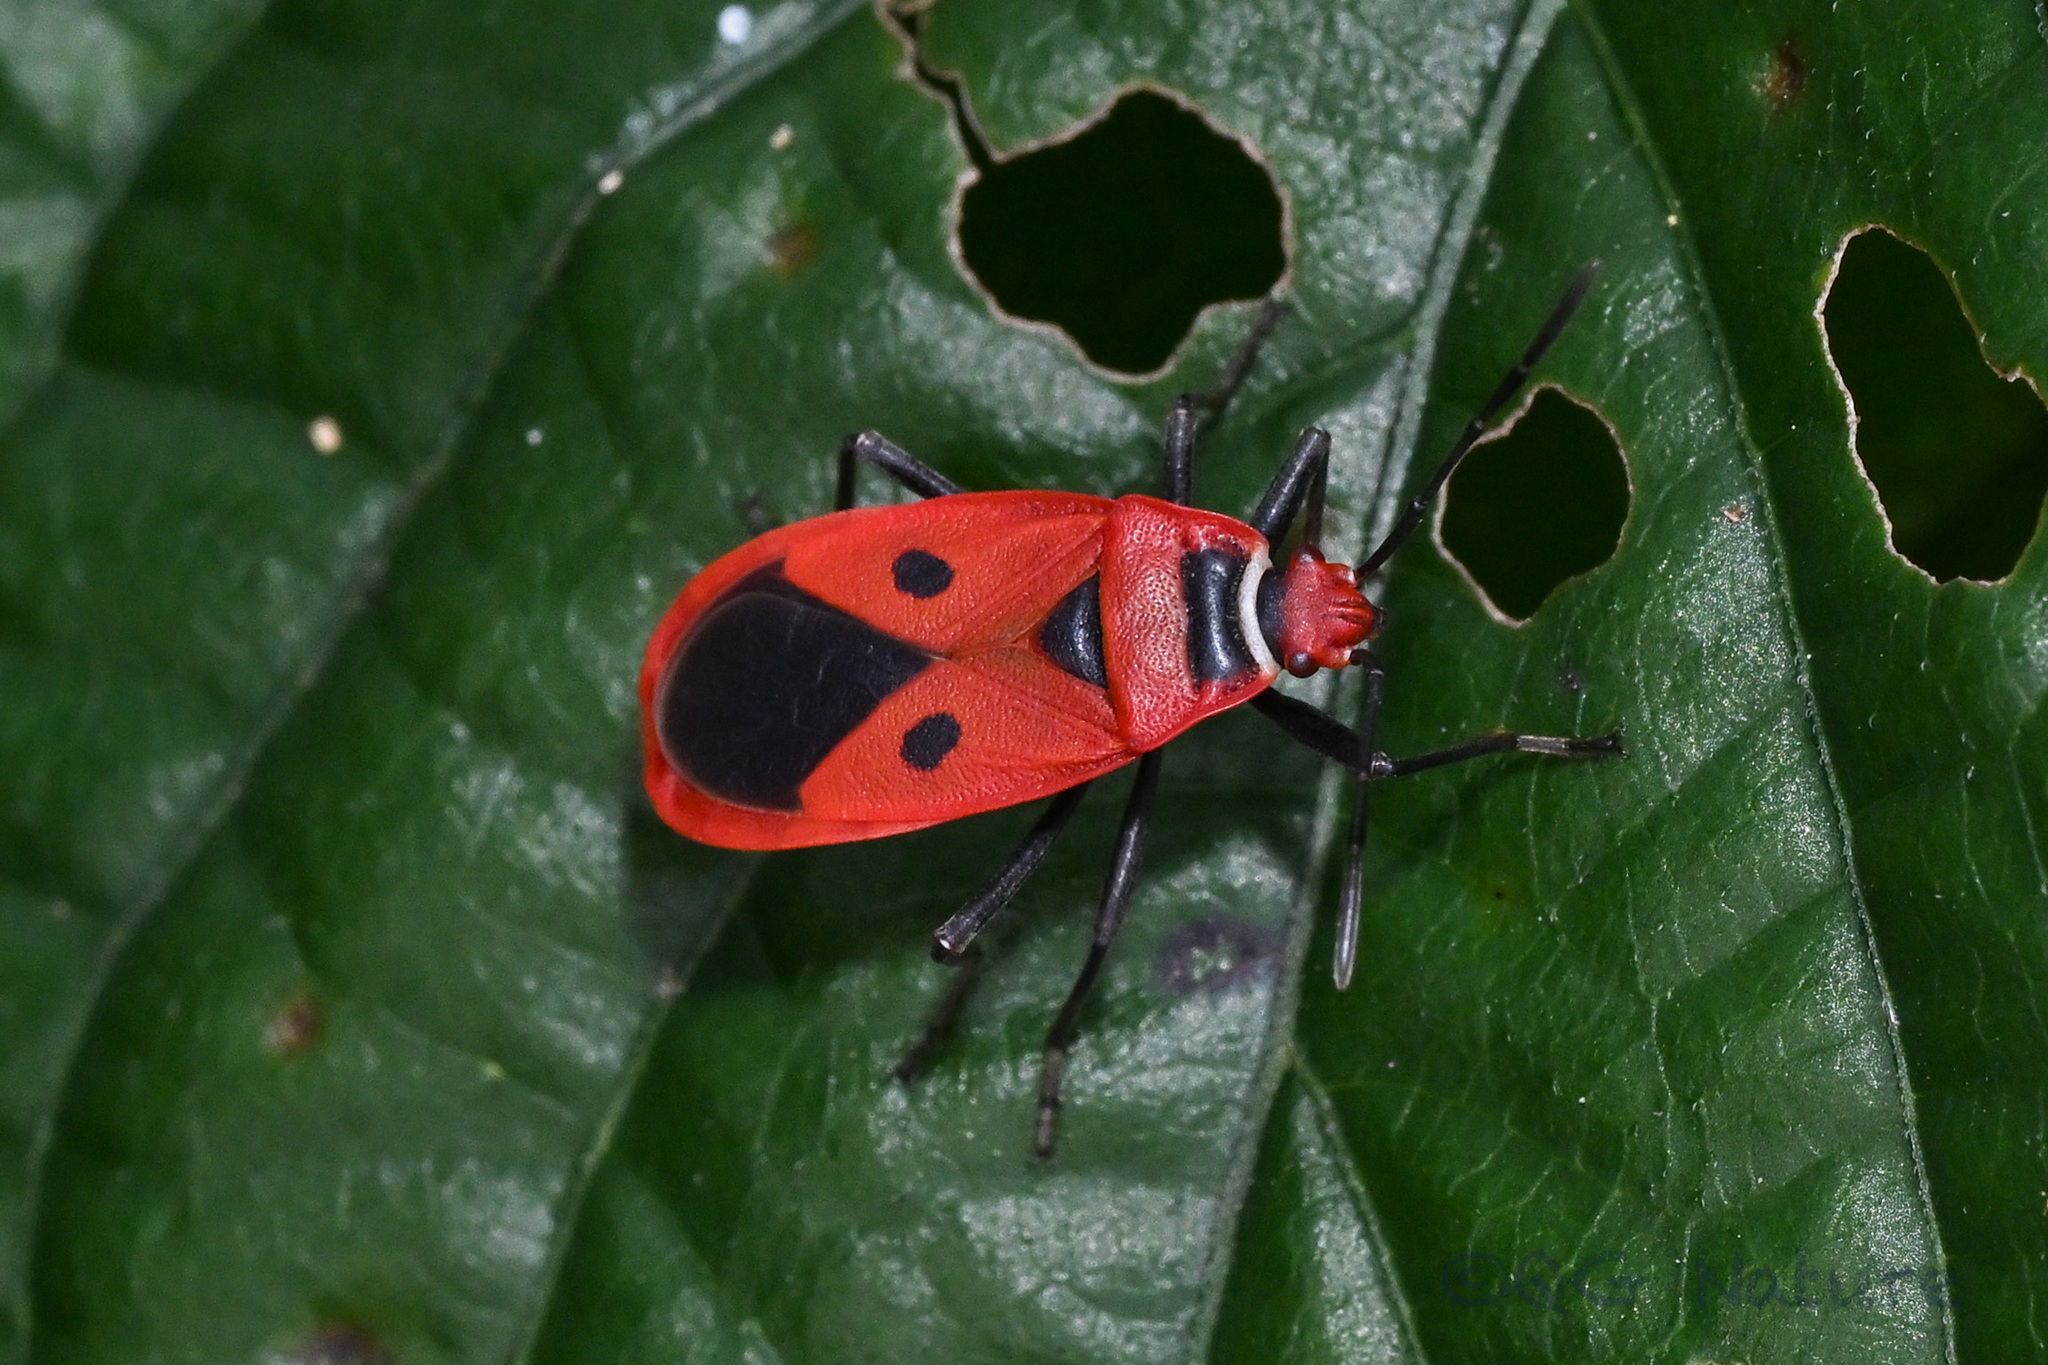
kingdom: Animalia
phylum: Arthropoda
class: Insecta
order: Hemiptera
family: Pyrrhocoridae
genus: Pyrrhopeplus
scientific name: Pyrrhopeplus carduelis
